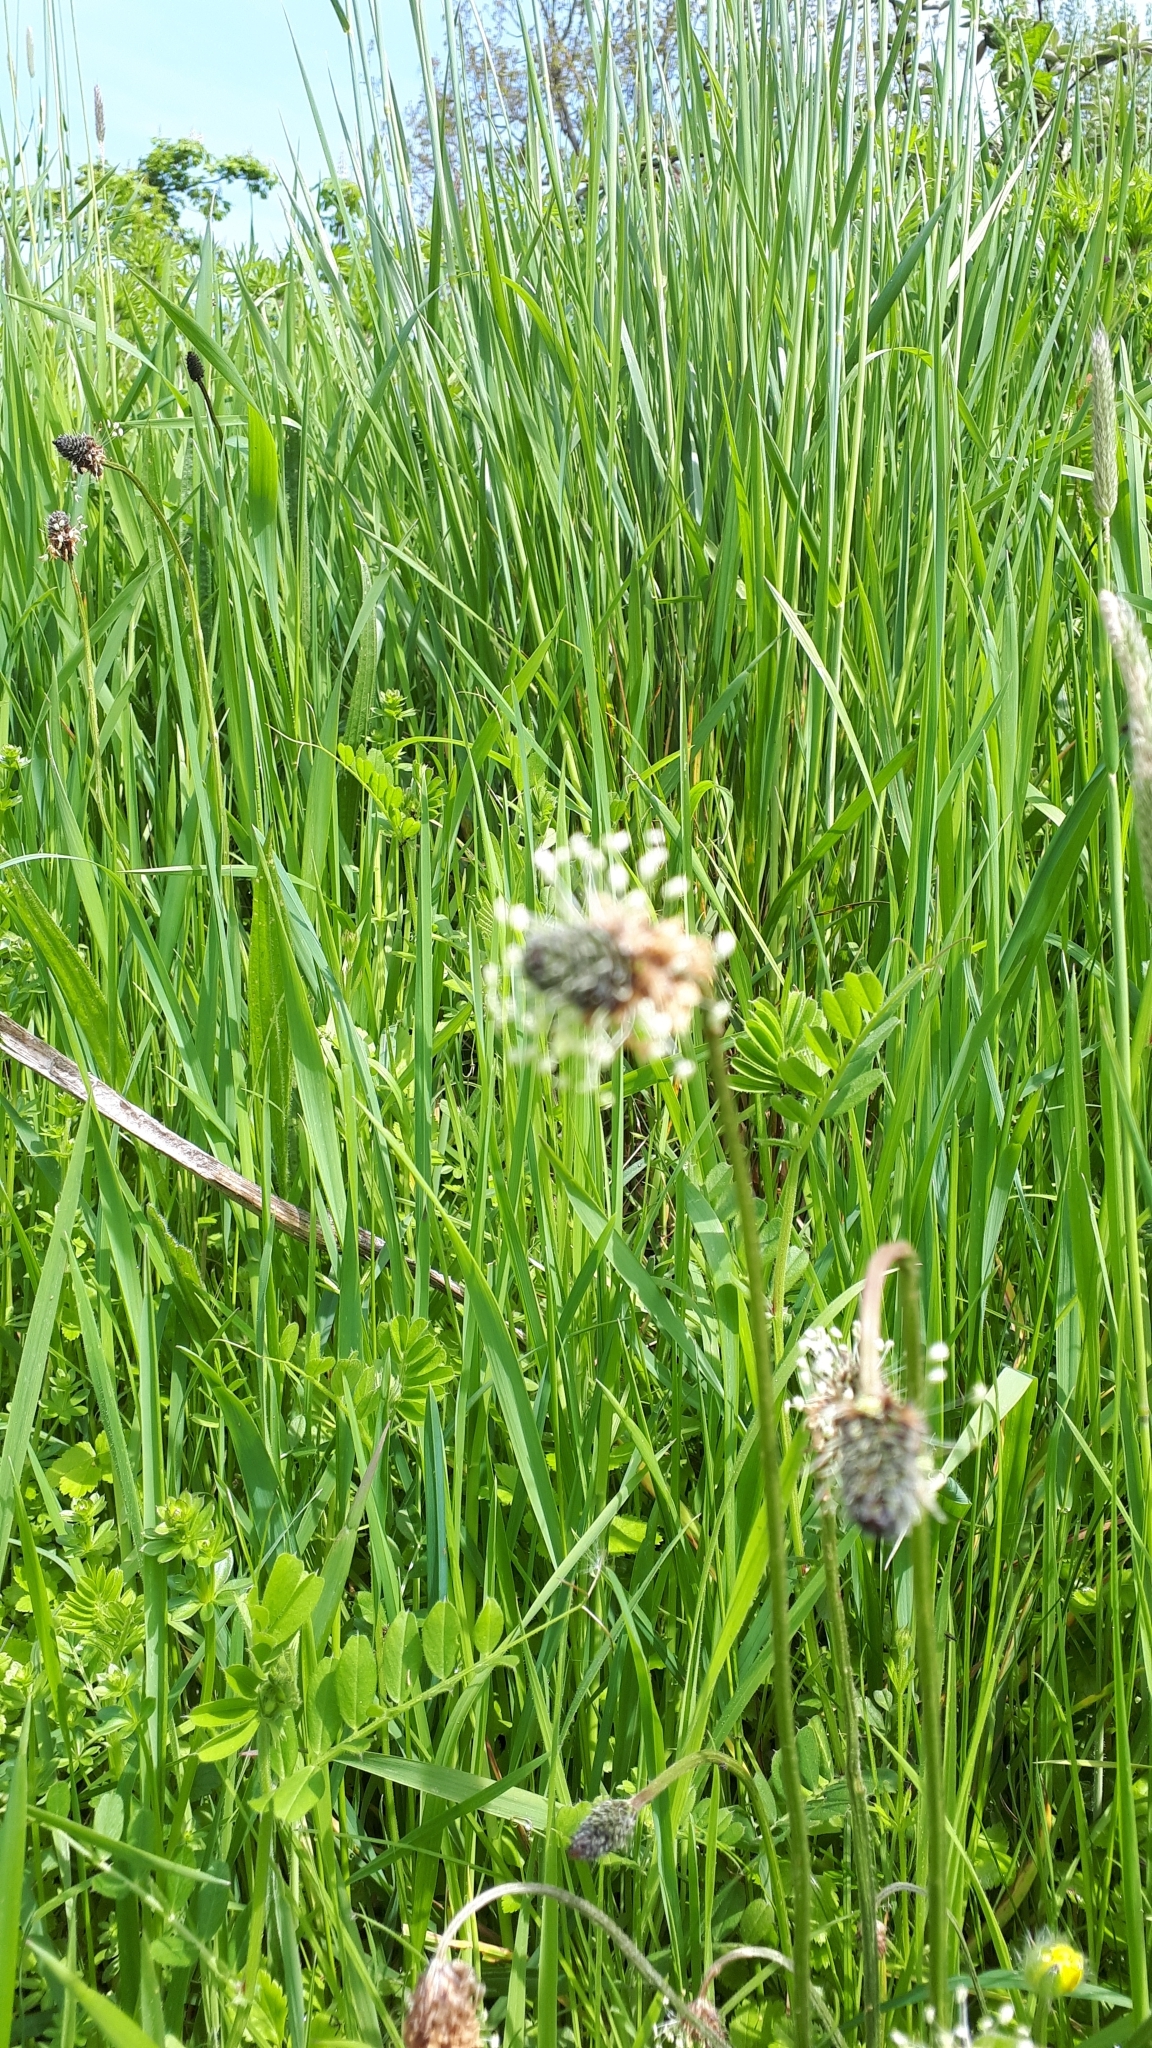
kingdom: Plantae
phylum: Tracheophyta
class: Magnoliopsida
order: Lamiales
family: Plantaginaceae
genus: Plantago
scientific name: Plantago lanceolata
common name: Ribwort plantain
